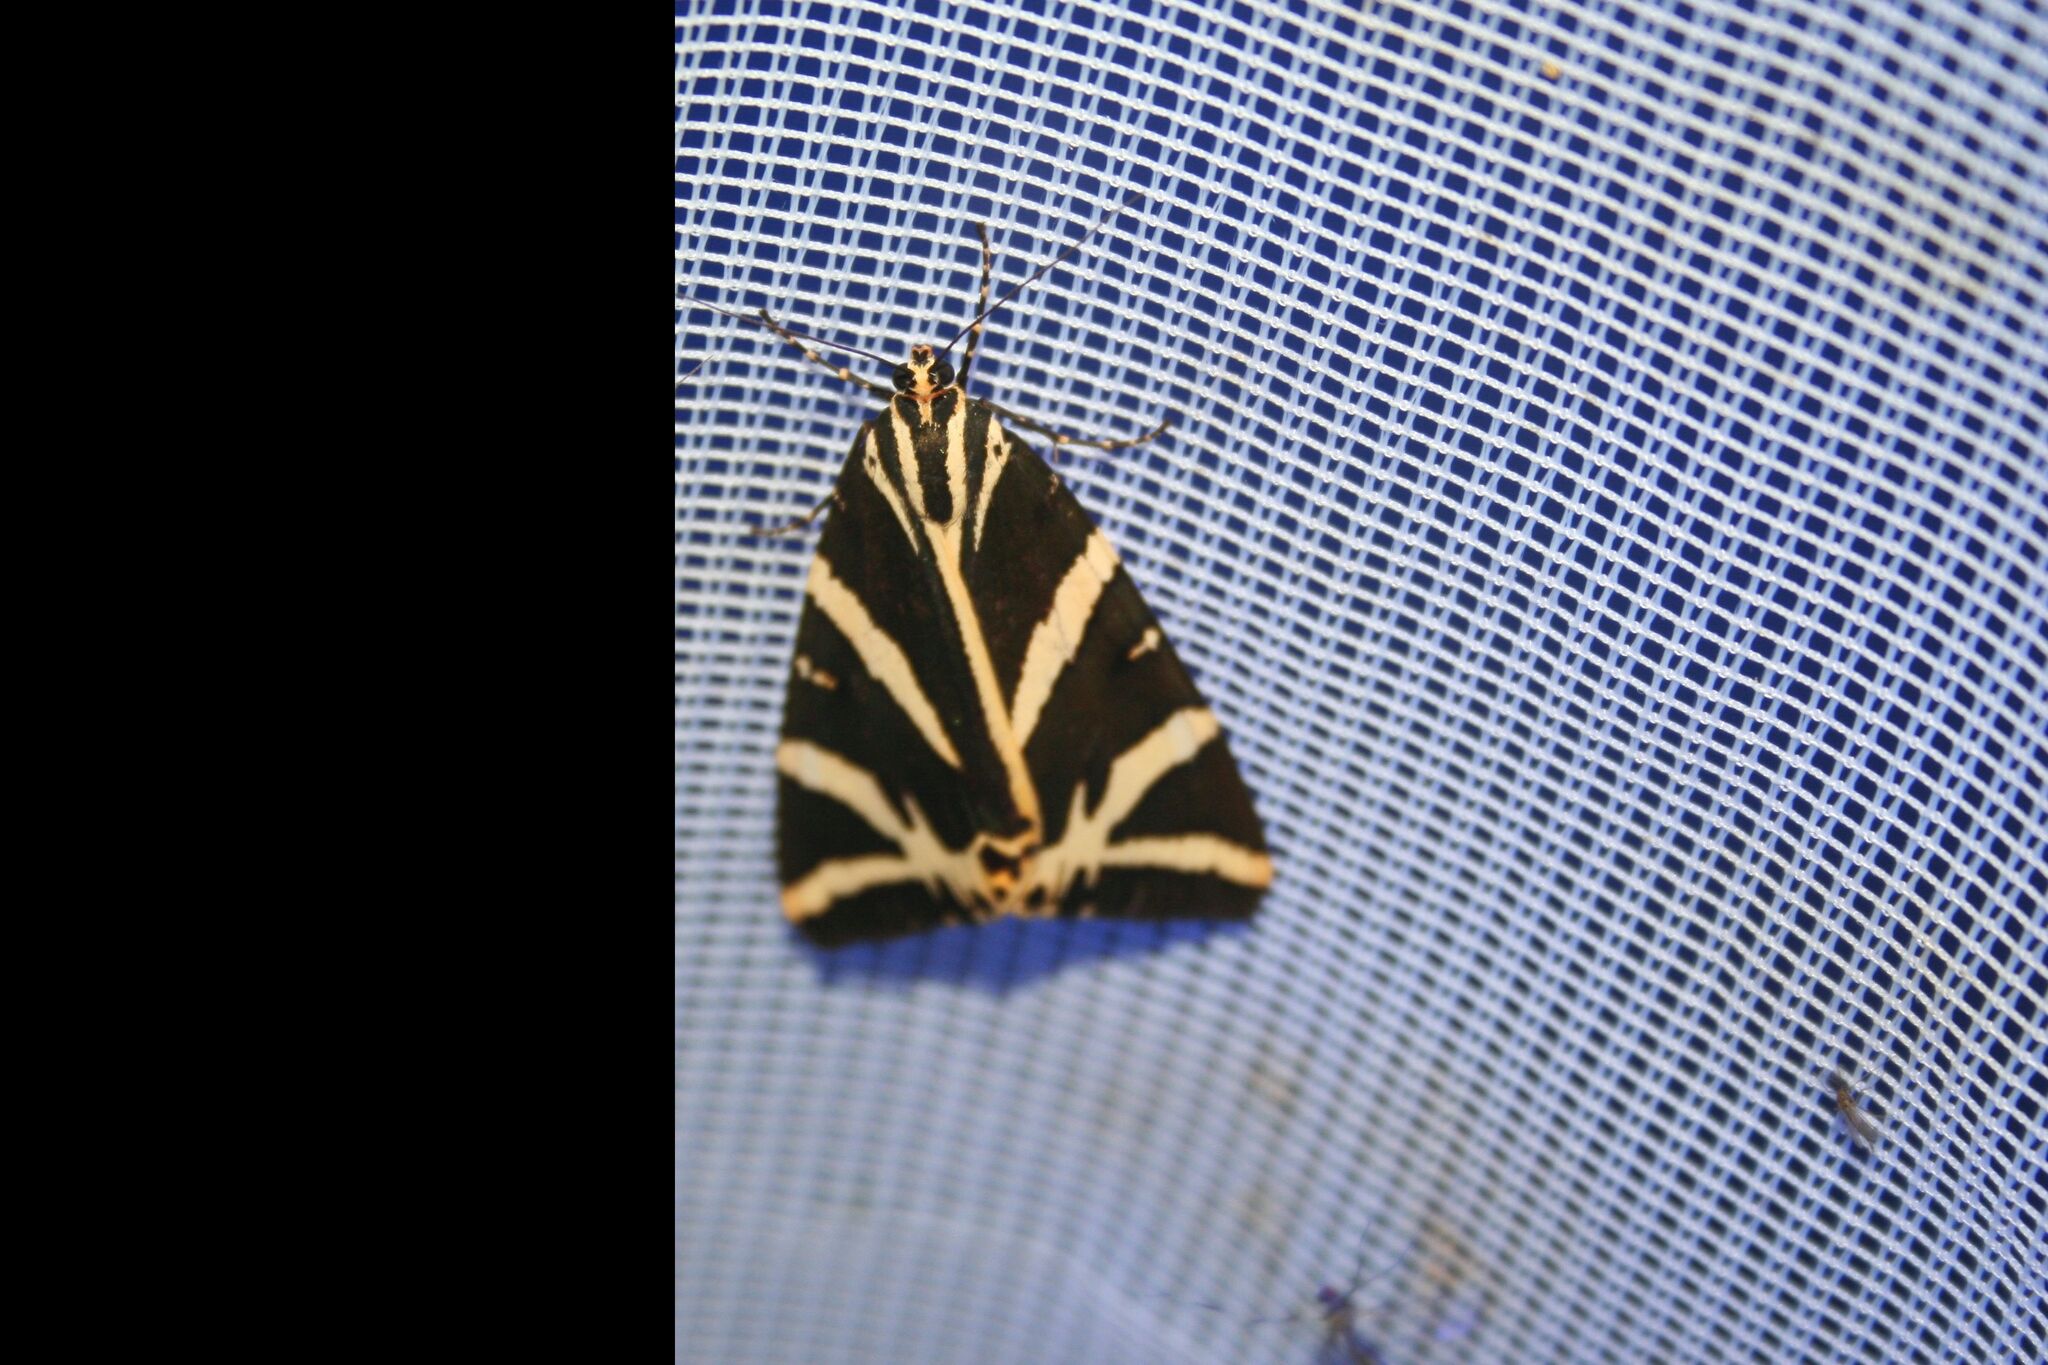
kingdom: Animalia
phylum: Arthropoda
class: Insecta
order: Lepidoptera
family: Erebidae
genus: Euplagia
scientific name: Euplagia quadripunctaria
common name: Jersey tiger
